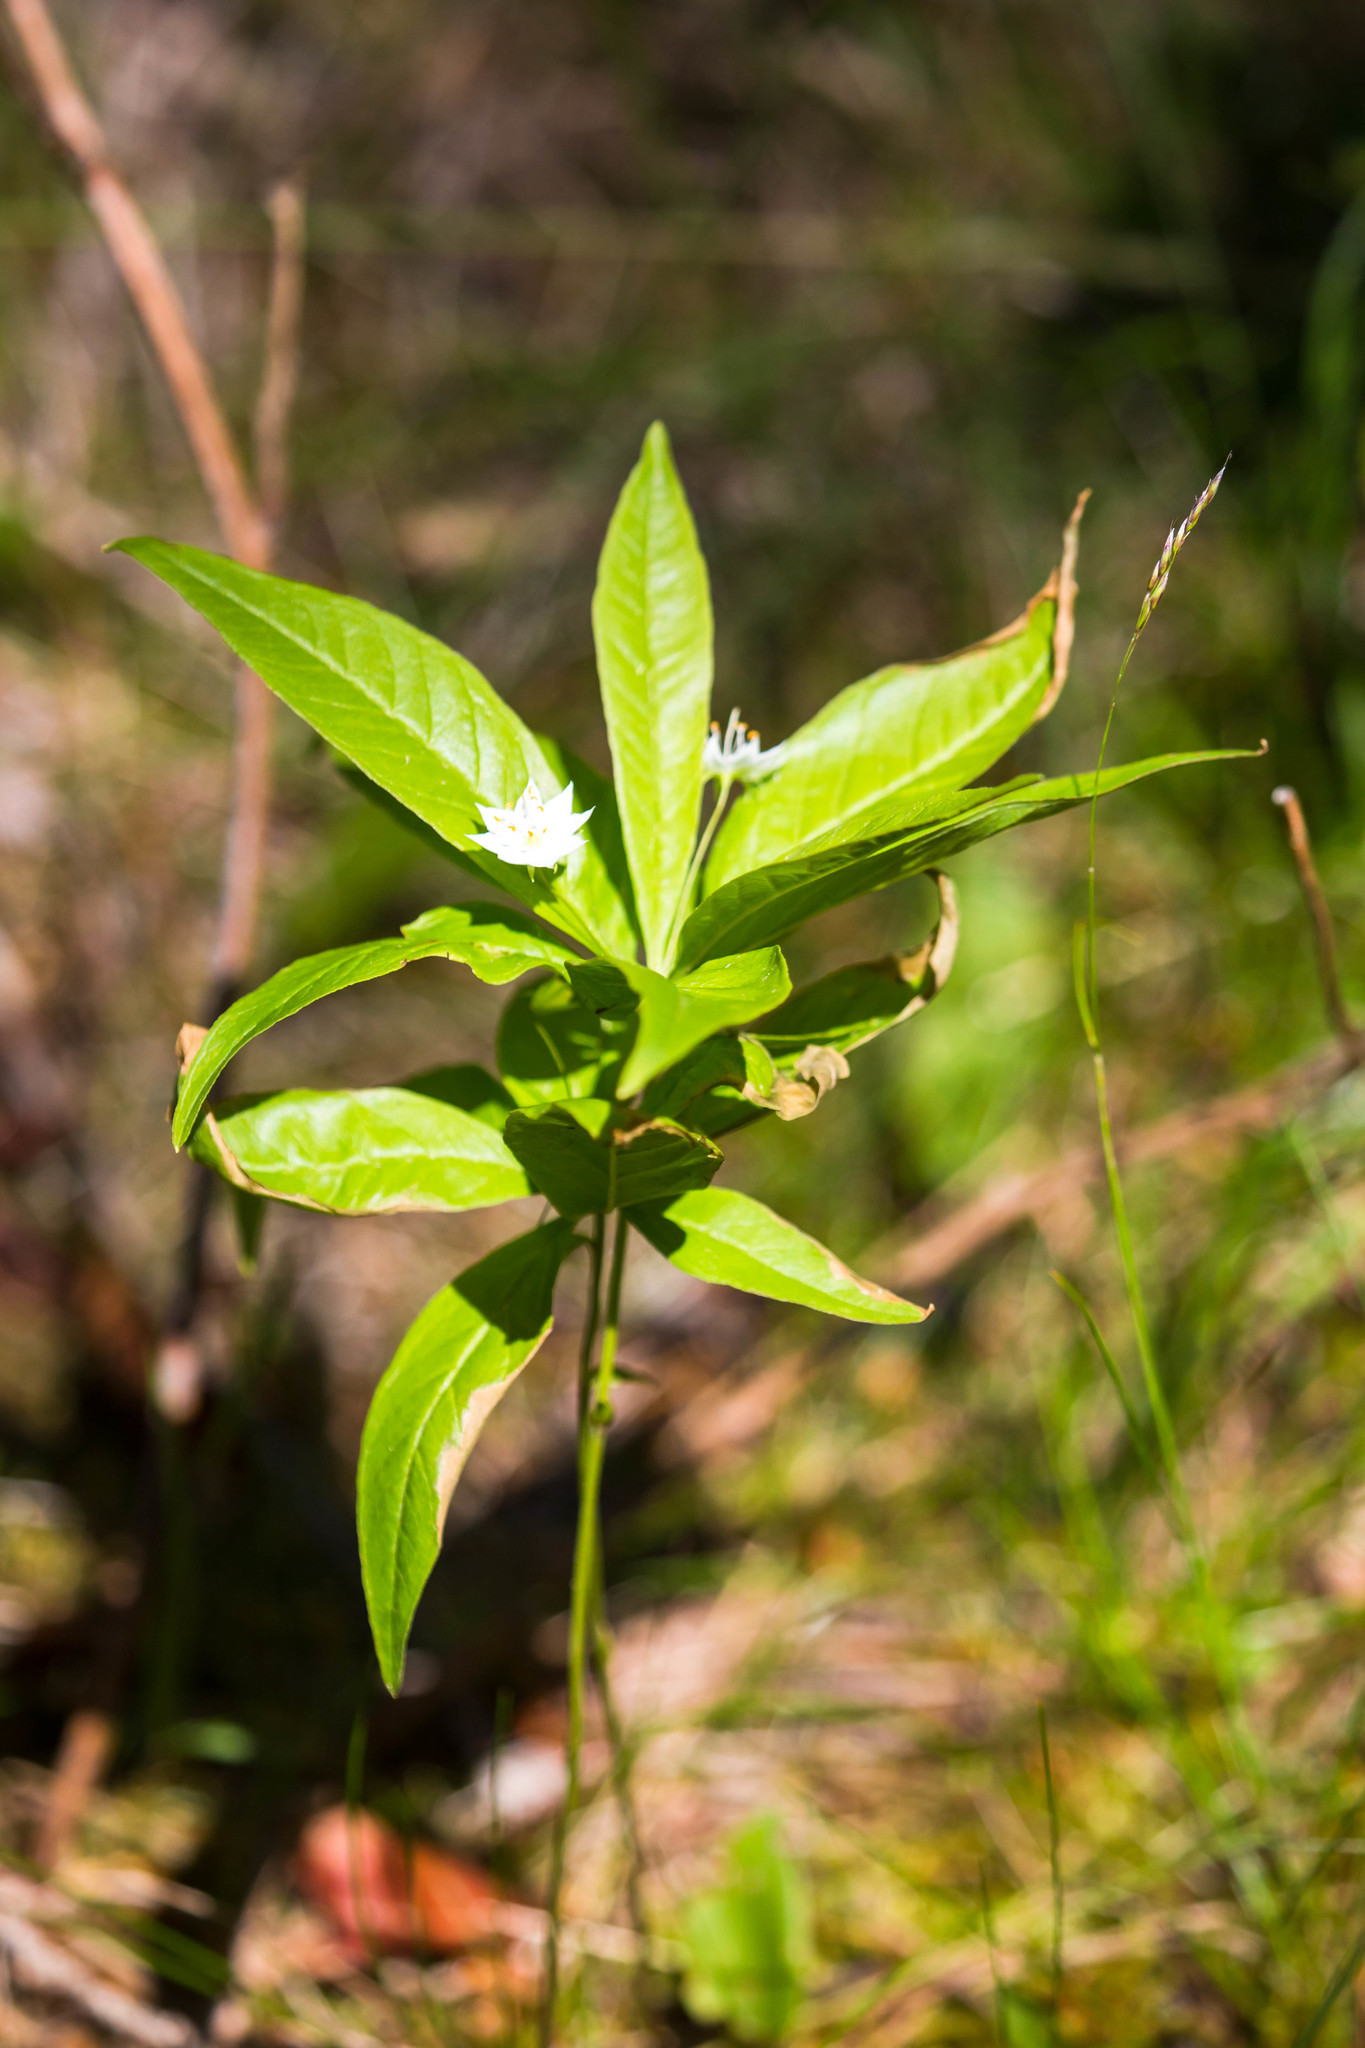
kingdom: Plantae
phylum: Tracheophyta
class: Magnoliopsida
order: Ericales
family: Primulaceae
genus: Lysimachia
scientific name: Lysimachia borealis
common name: American starflower
